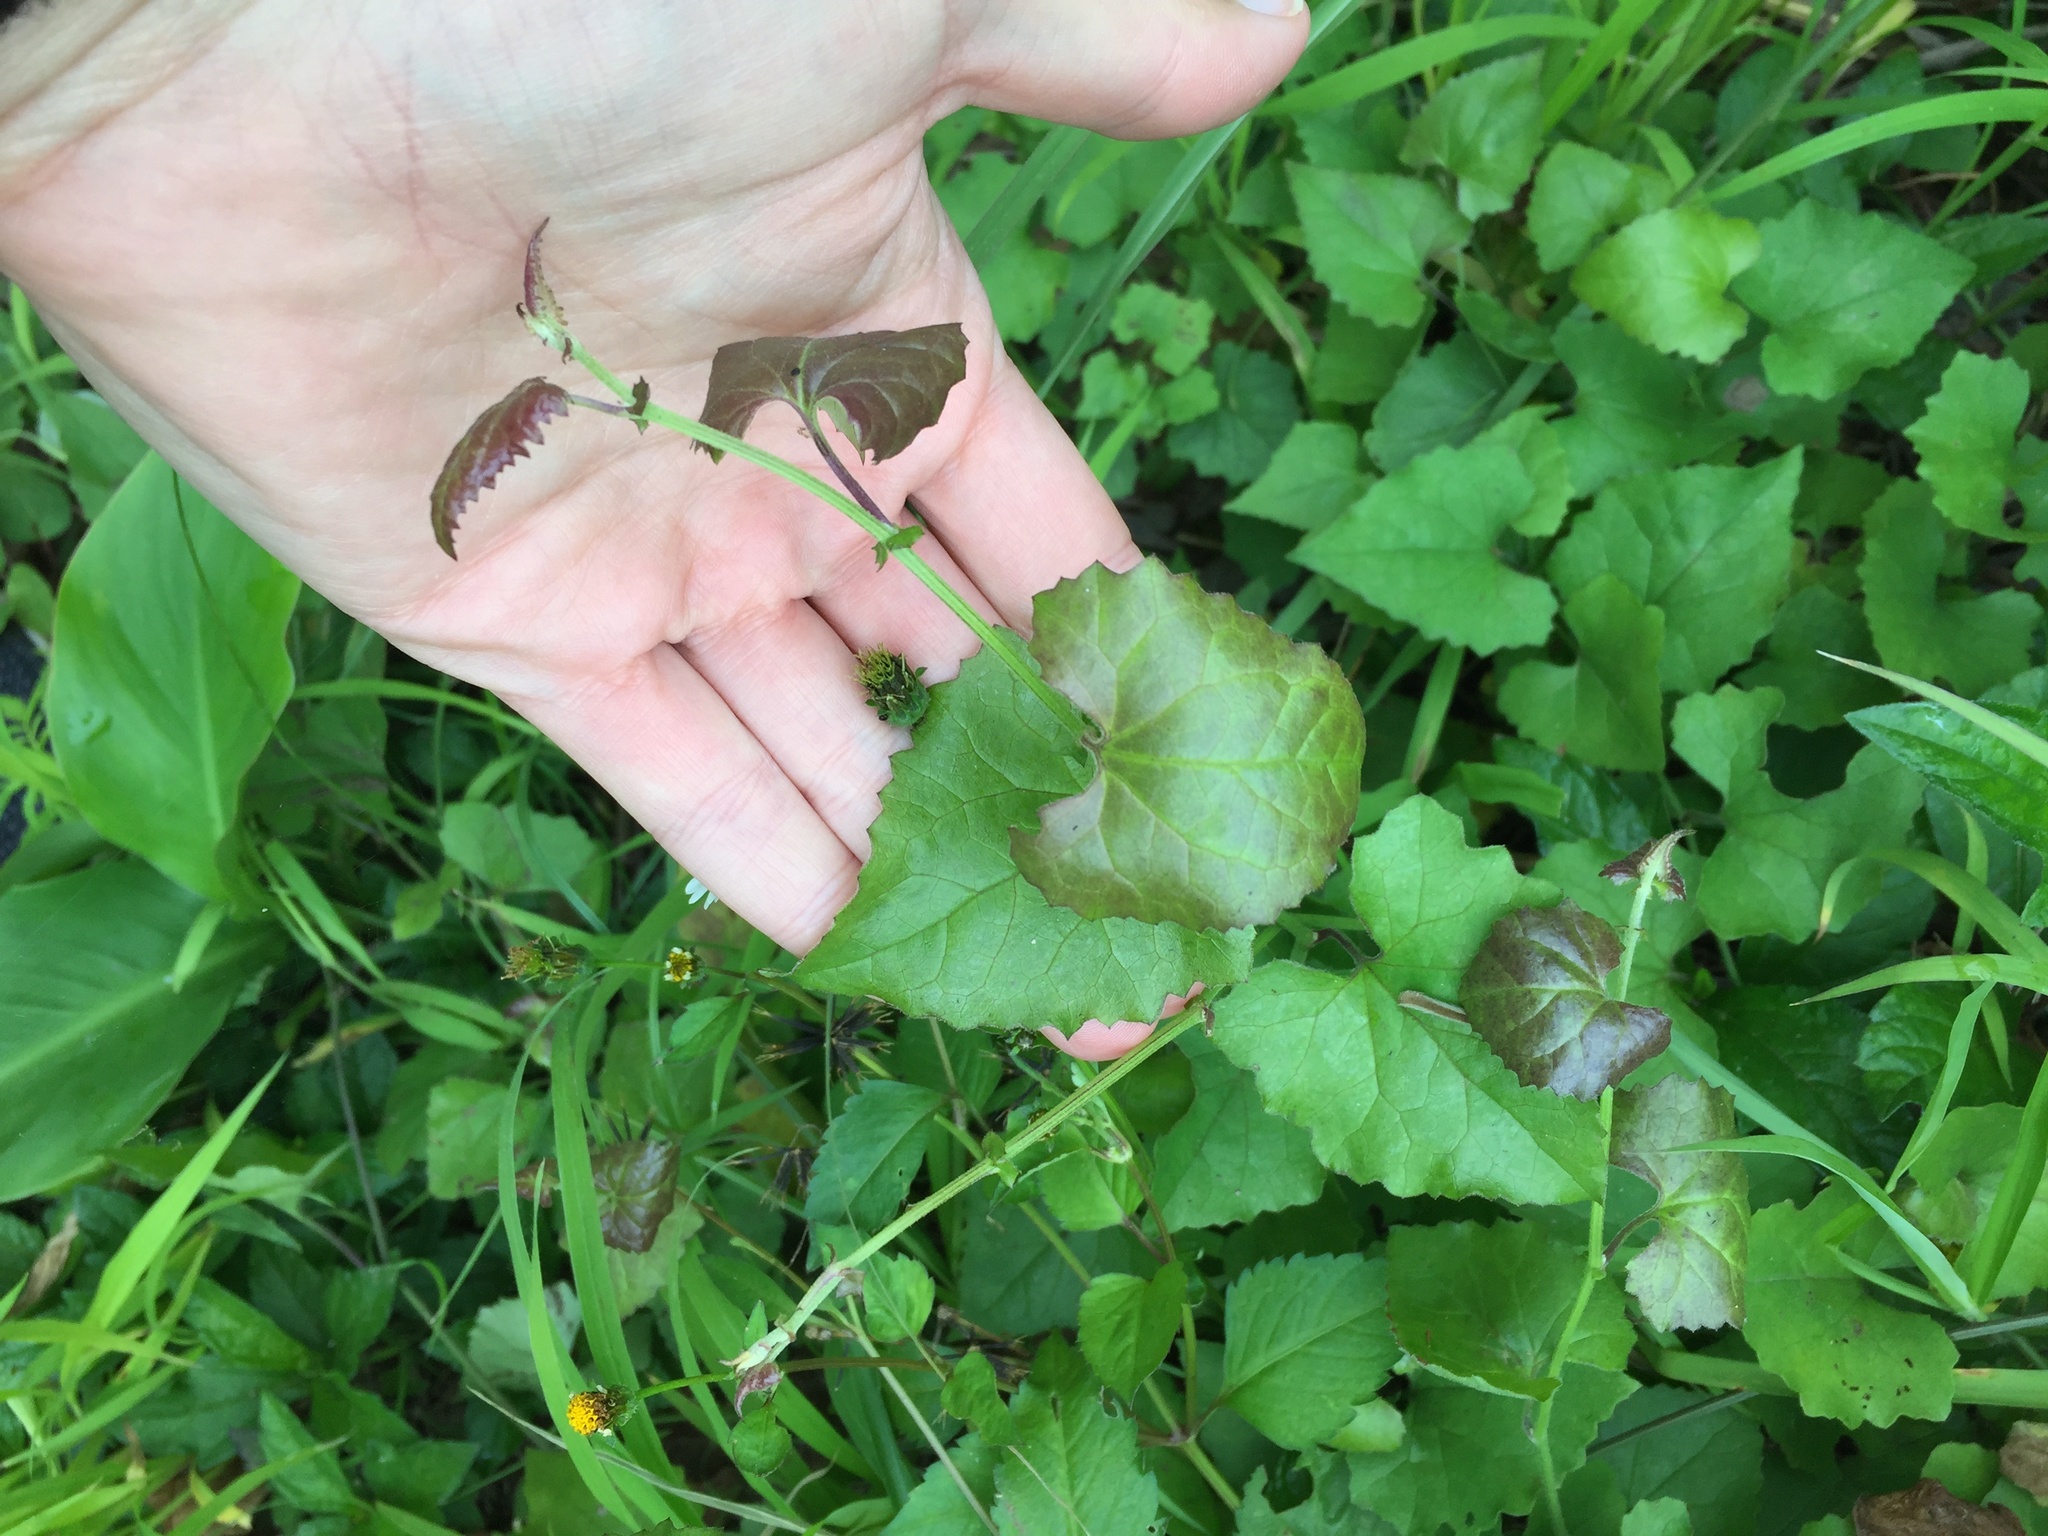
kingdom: Plantae
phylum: Tracheophyta
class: Magnoliopsida
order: Asterales
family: Asteraceae
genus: Senecio
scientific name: Senecio deltoideus
